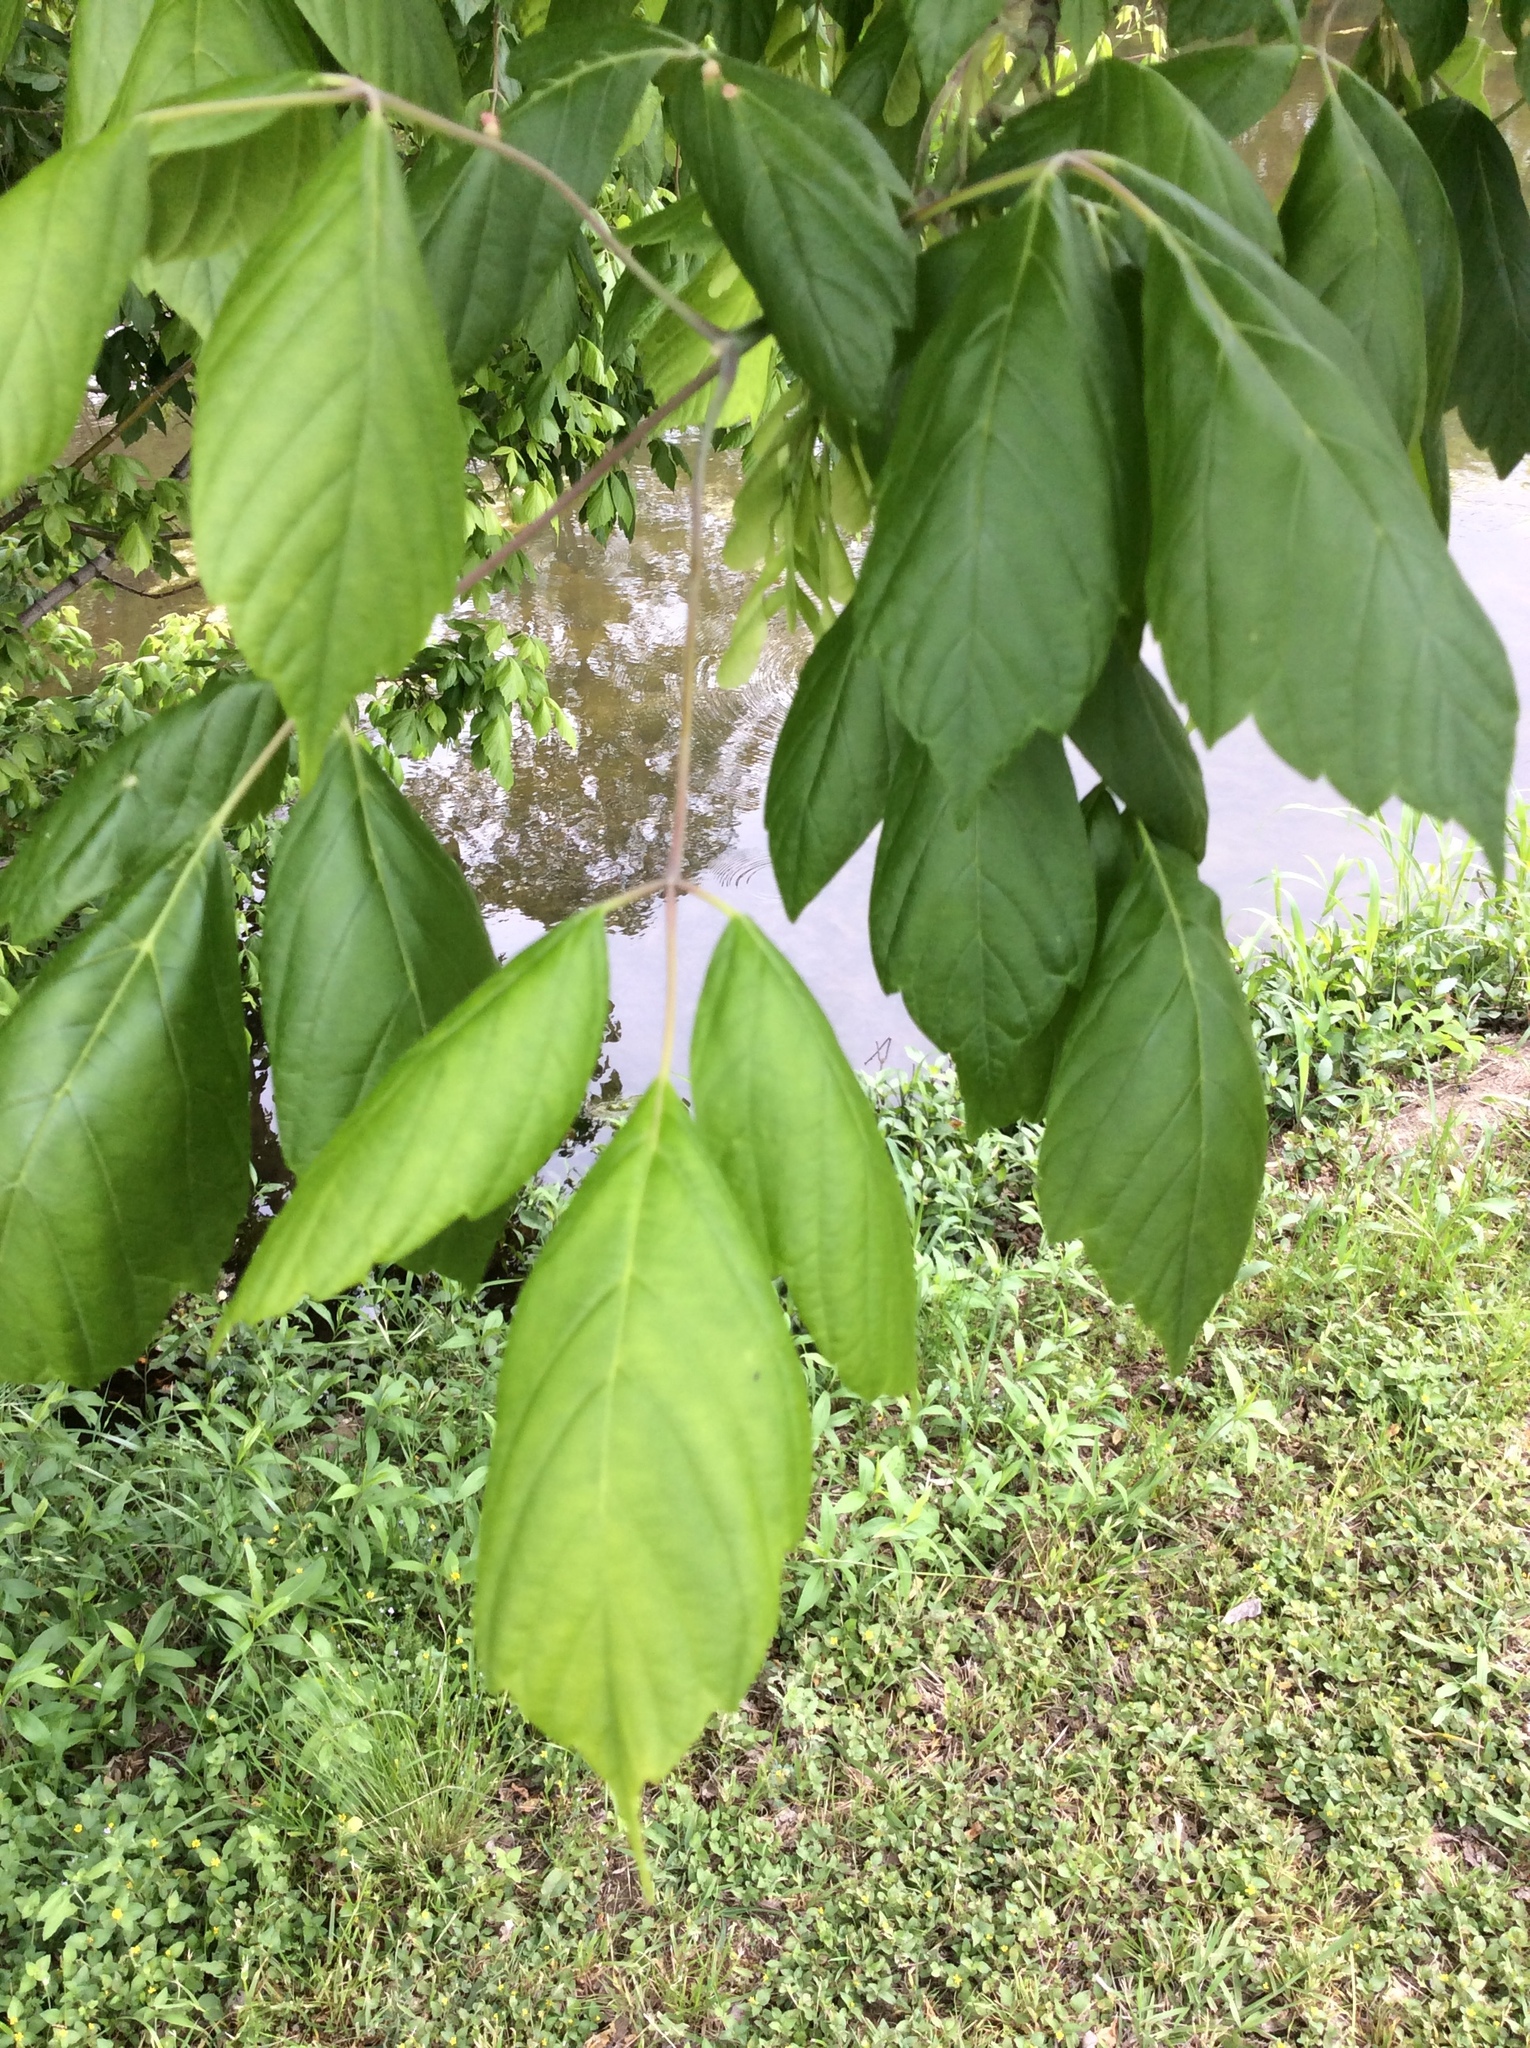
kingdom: Plantae
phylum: Tracheophyta
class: Magnoliopsida
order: Sapindales
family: Sapindaceae
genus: Acer
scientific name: Acer negundo
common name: Ashleaf maple
